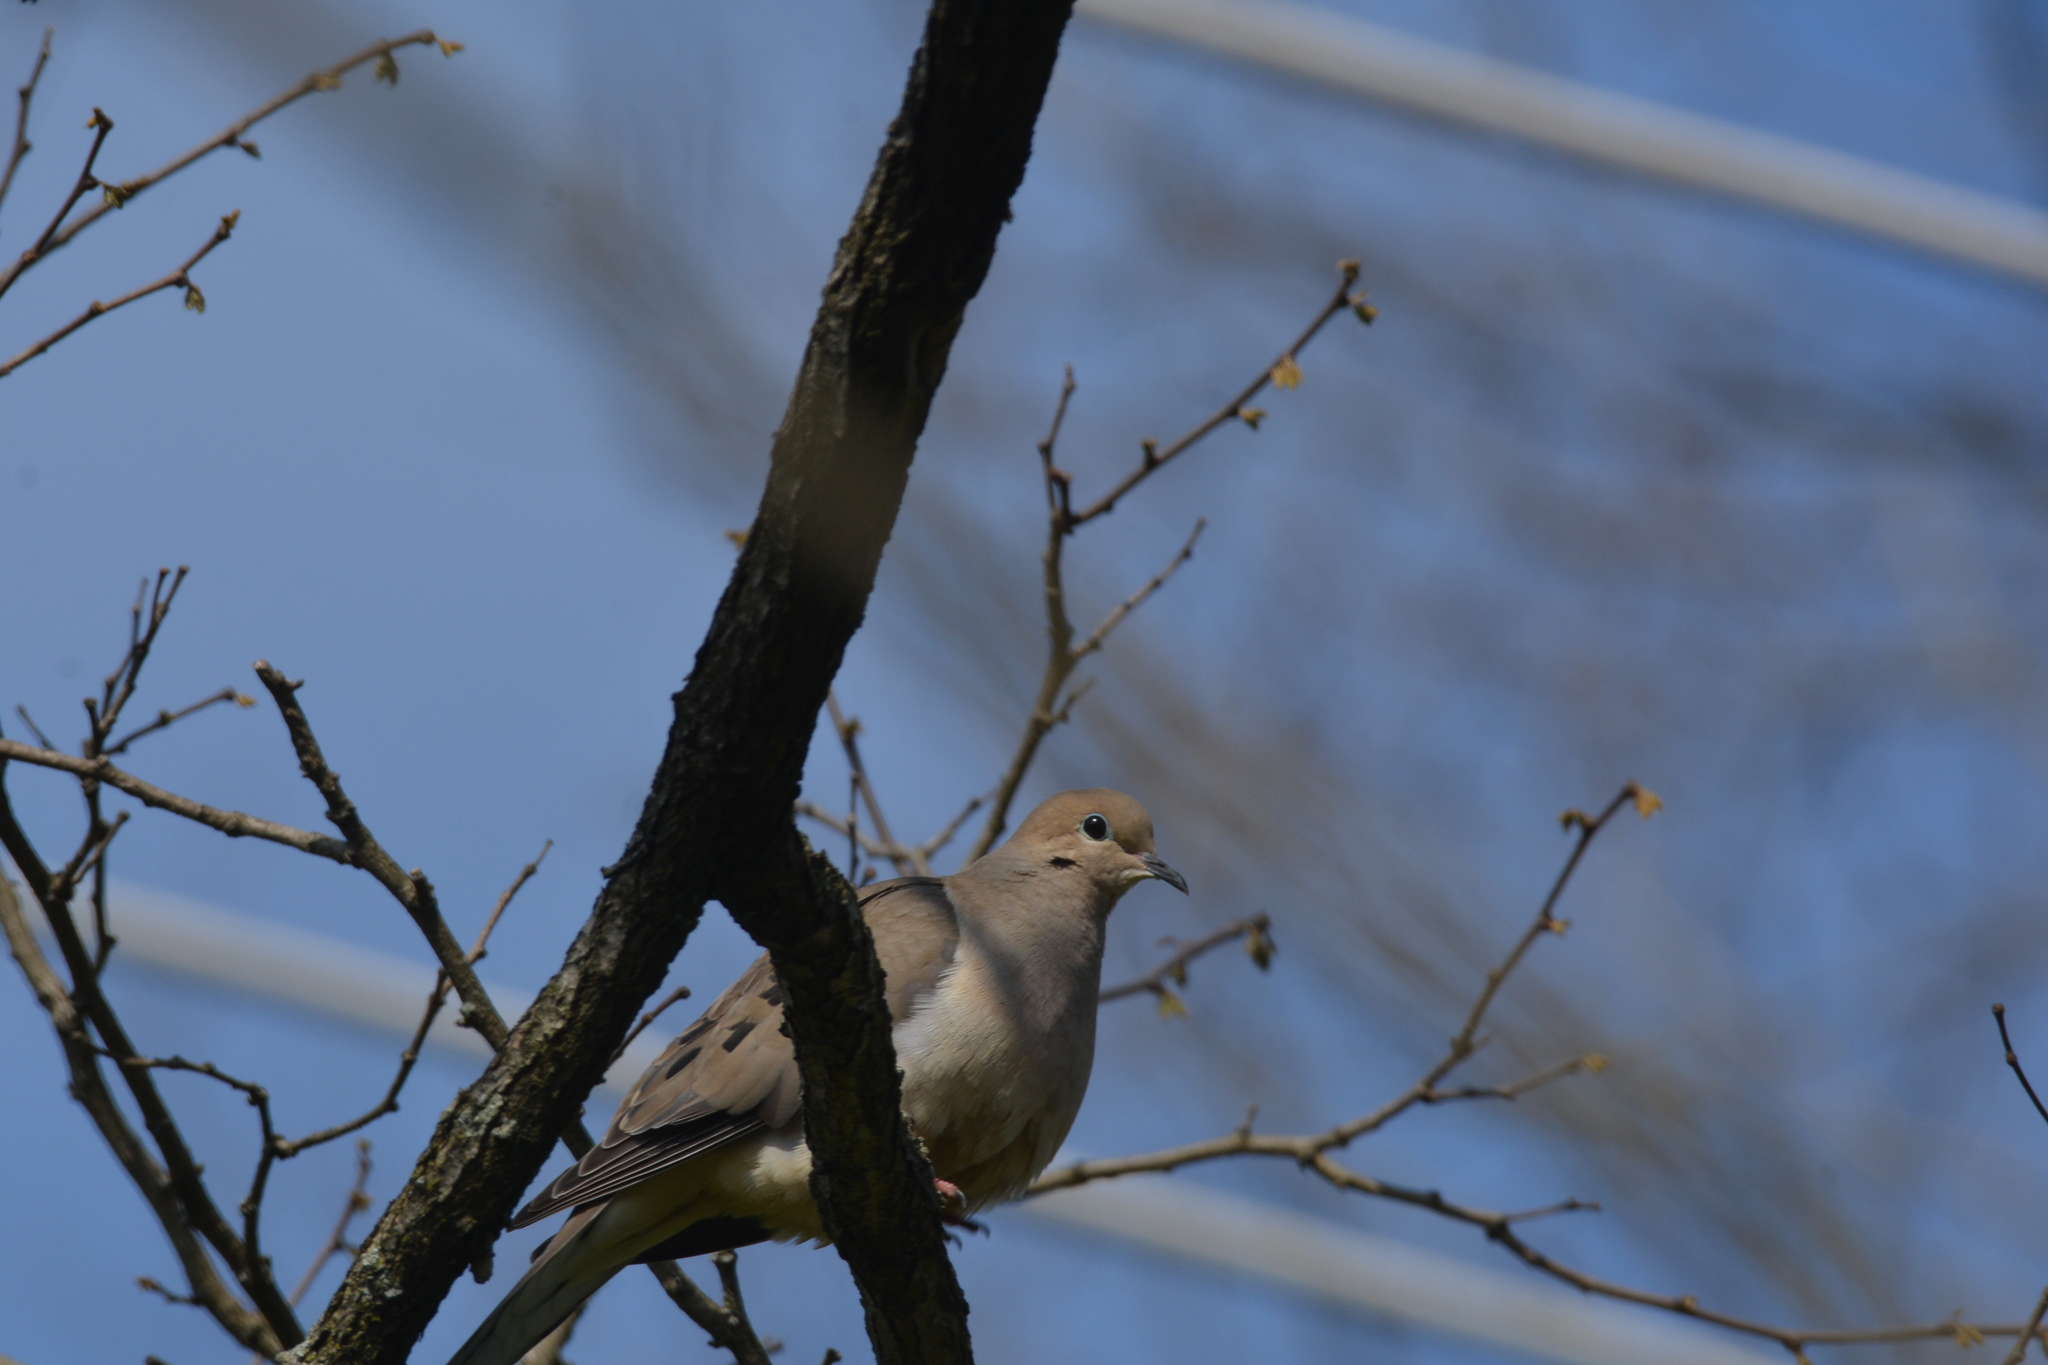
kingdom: Animalia
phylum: Chordata
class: Aves
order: Columbiformes
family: Columbidae
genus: Zenaida
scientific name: Zenaida macroura
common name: Mourning dove
